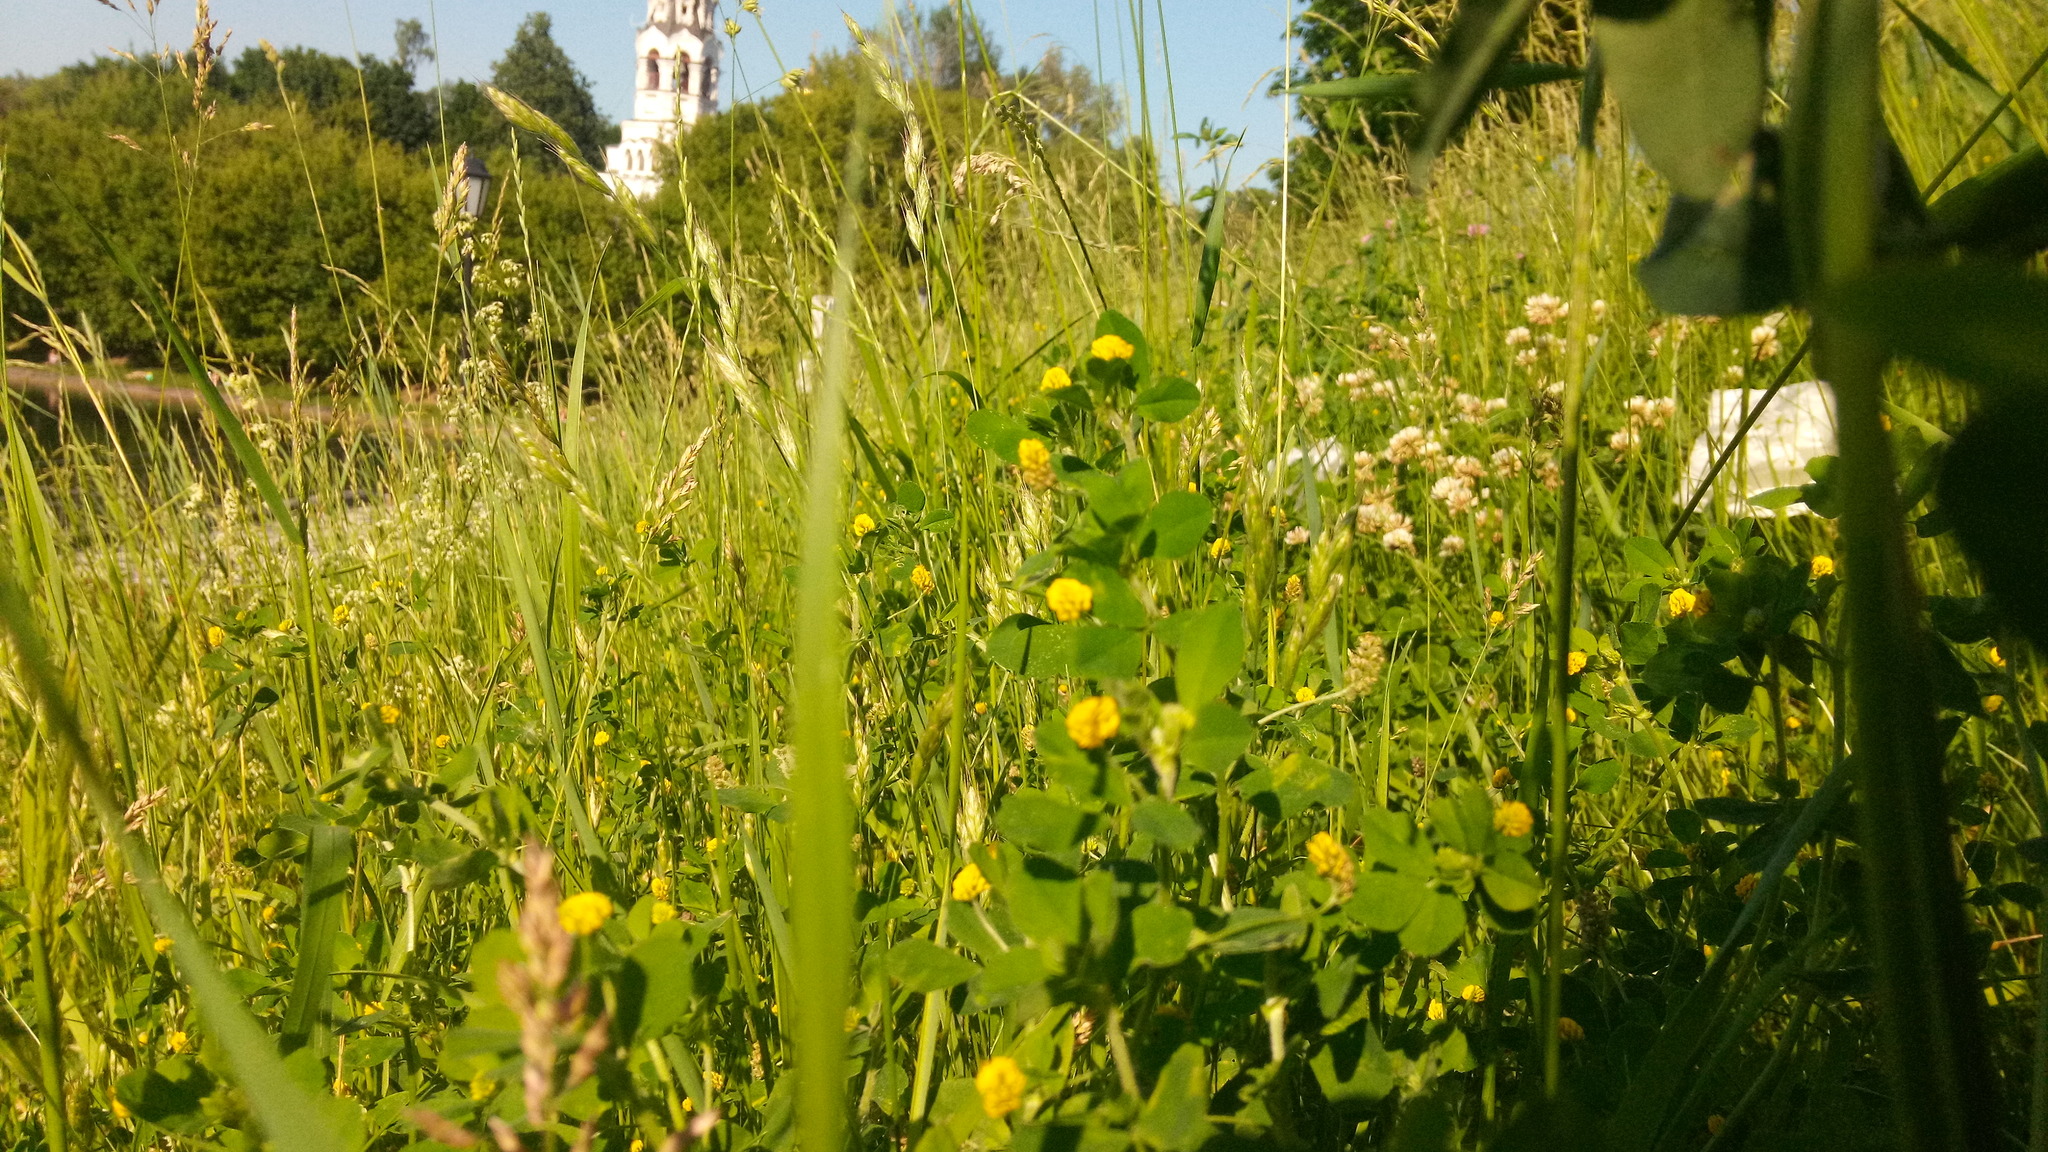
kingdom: Plantae
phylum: Tracheophyta
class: Magnoliopsida
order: Fabales
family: Fabaceae
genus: Medicago
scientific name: Medicago lupulina
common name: Black medick
